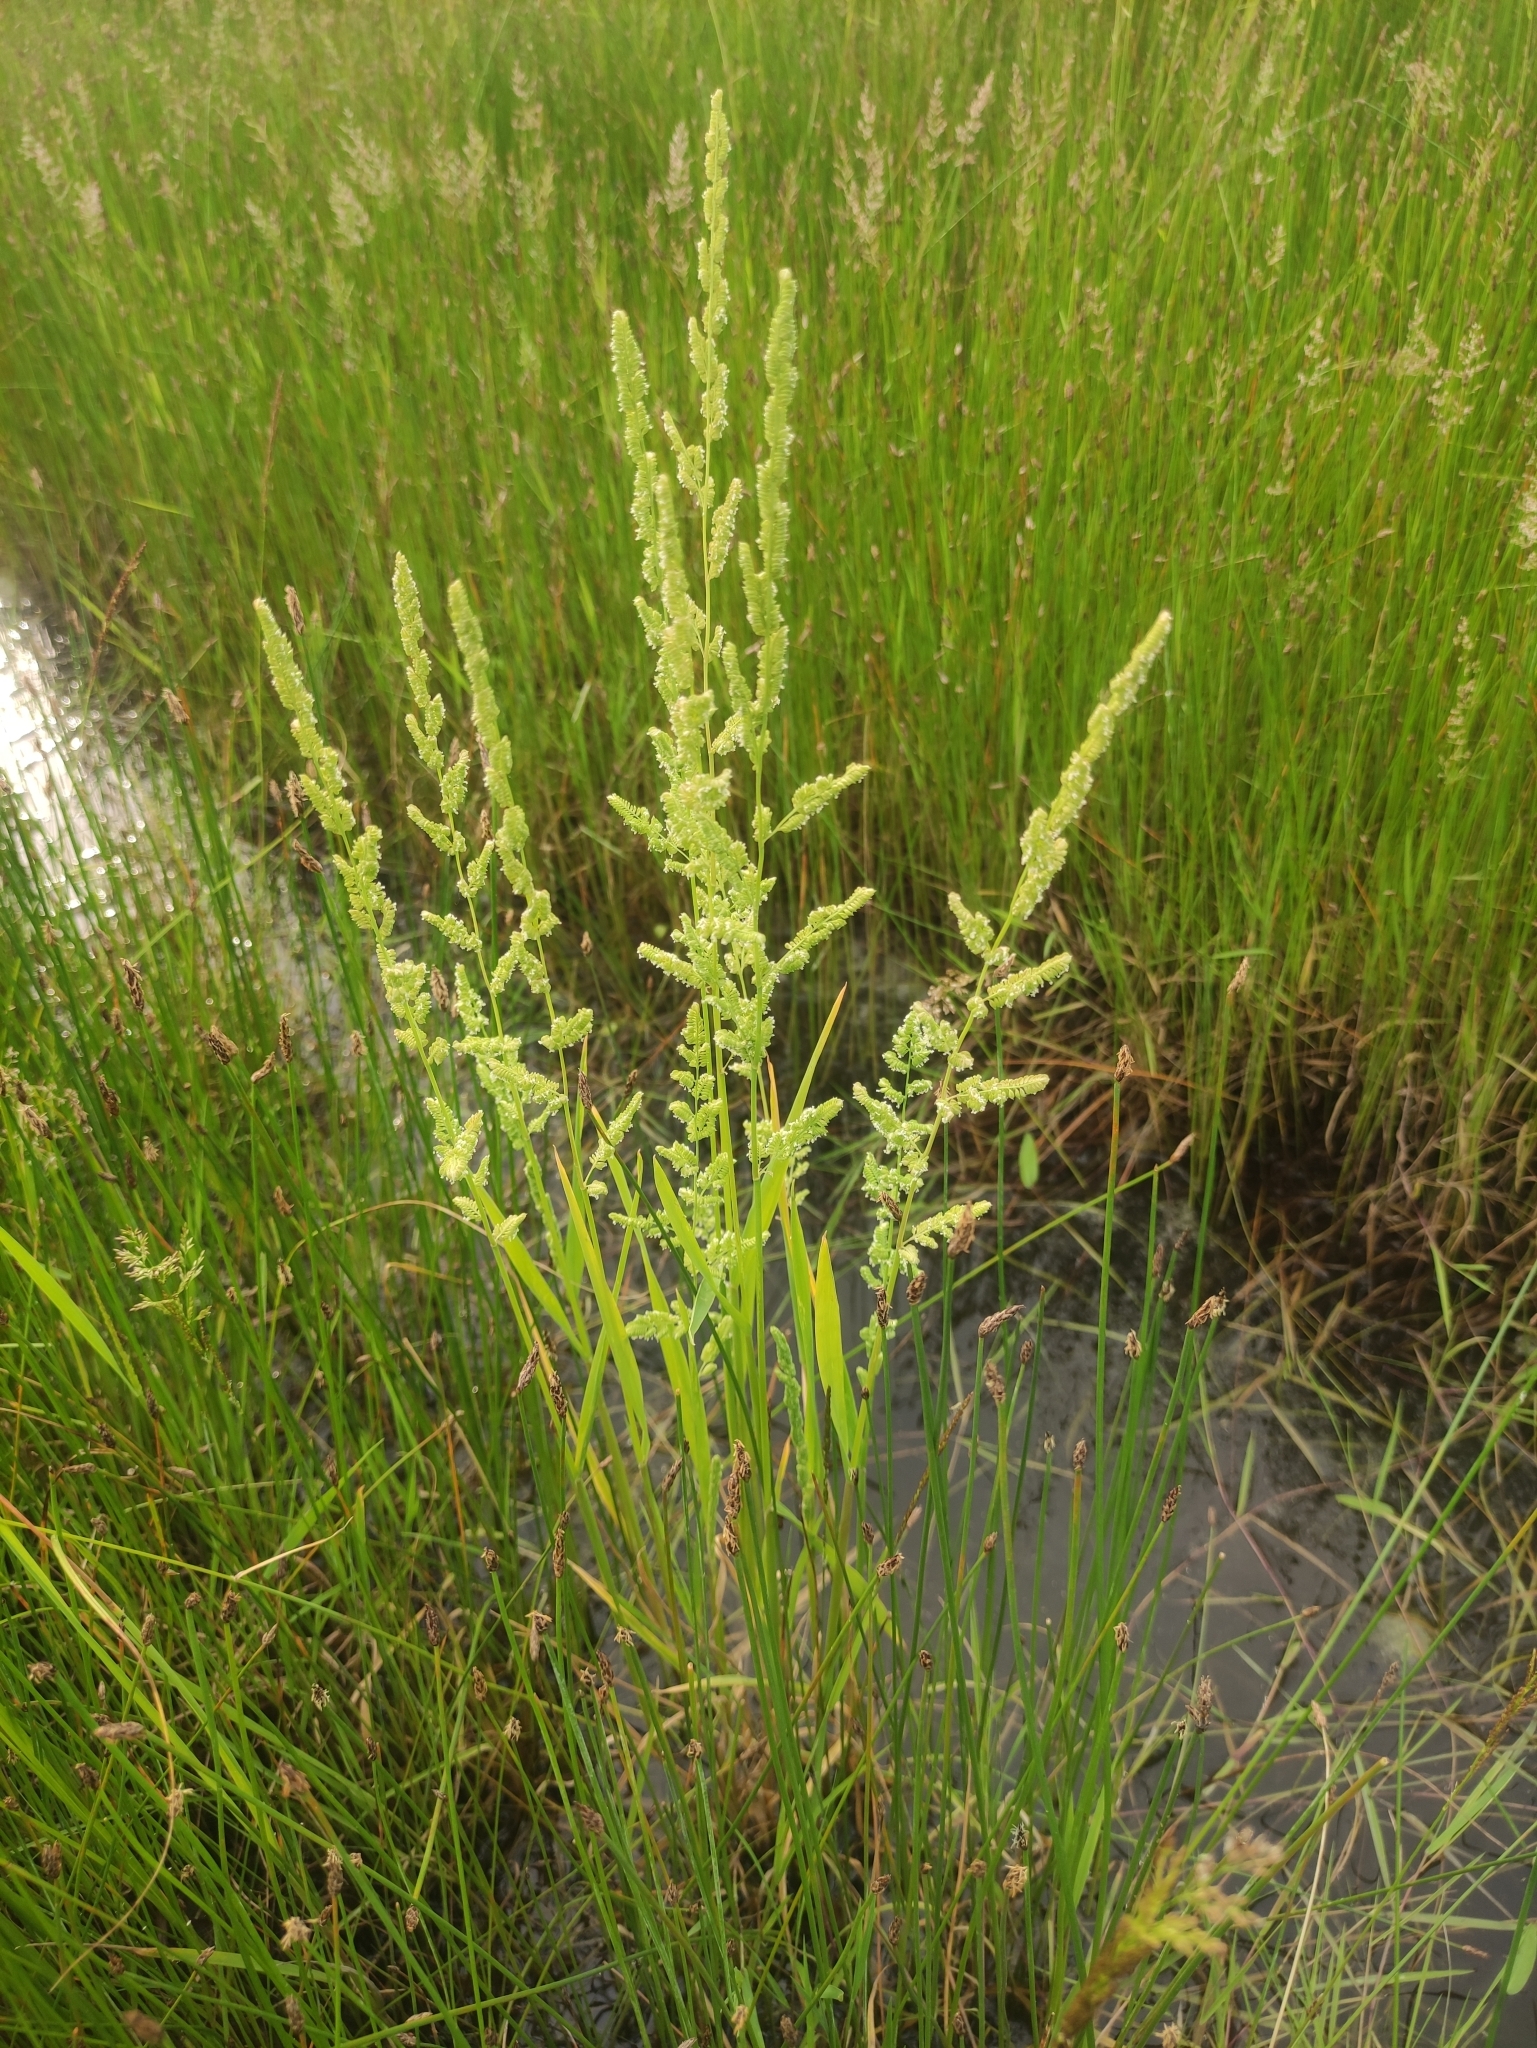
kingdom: Plantae
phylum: Tracheophyta
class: Liliopsida
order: Poales
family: Poaceae
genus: Beckmannia
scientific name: Beckmannia syzigachne
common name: American slough-grass
